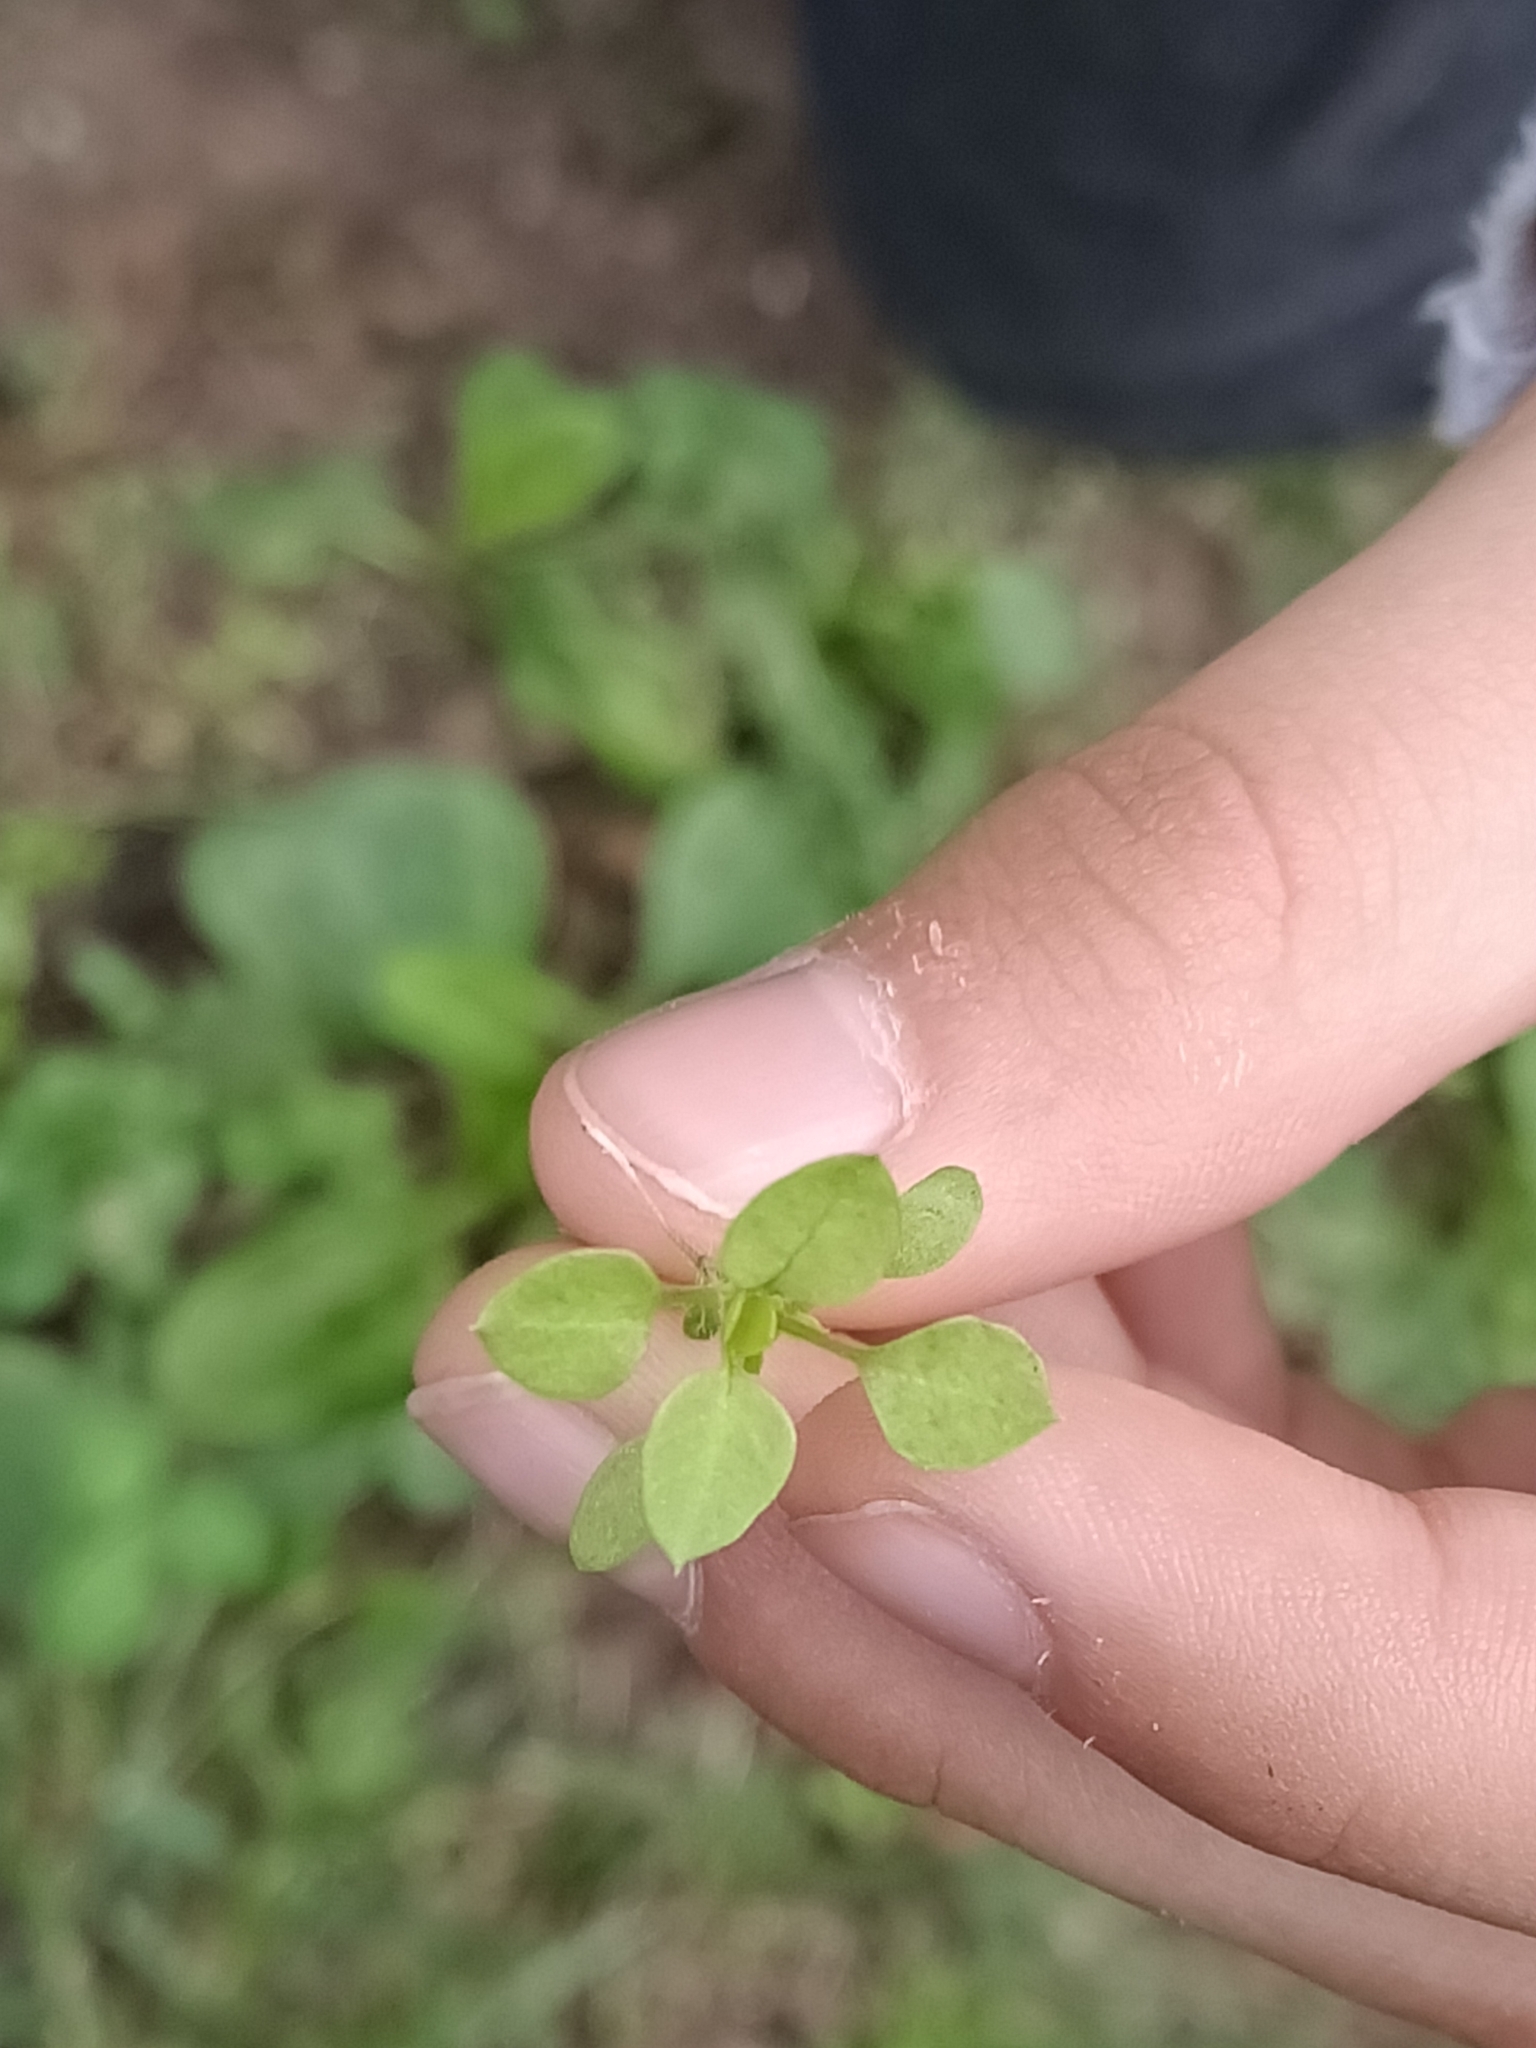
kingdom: Plantae
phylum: Tracheophyta
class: Magnoliopsida
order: Caryophyllales
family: Caryophyllaceae
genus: Stellaria
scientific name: Stellaria media
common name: Common chickweed
